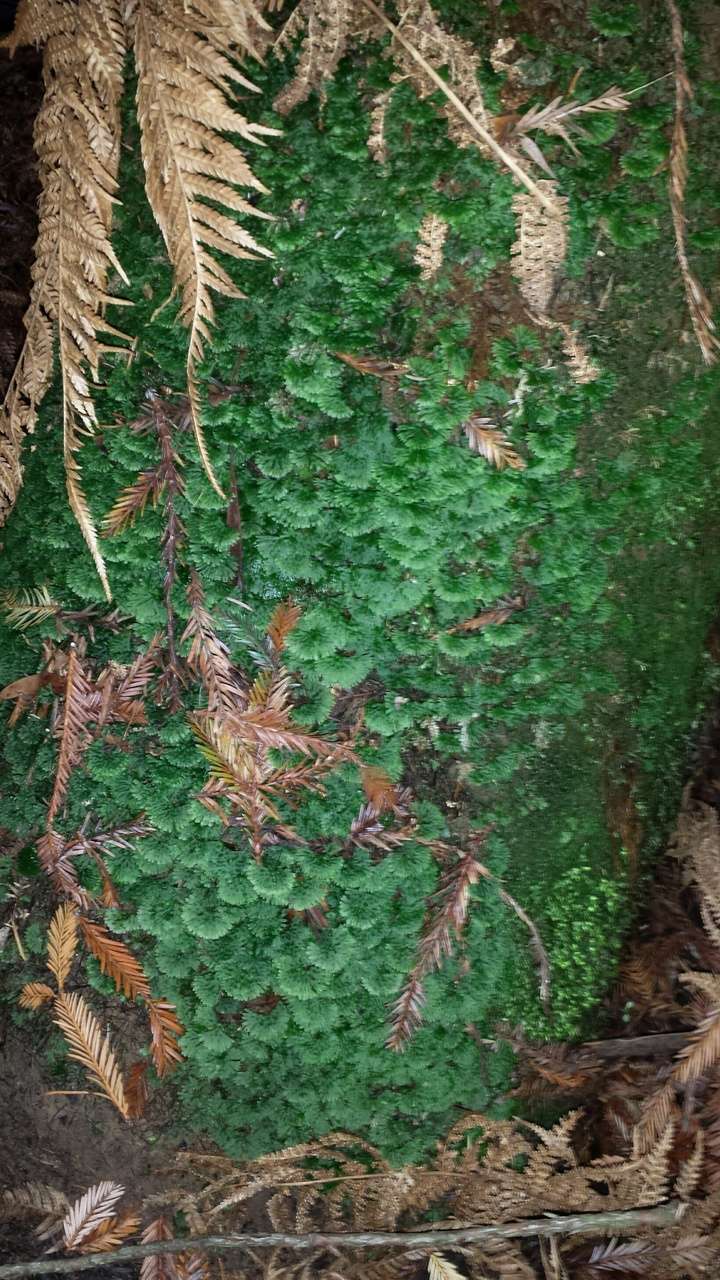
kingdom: Plantae
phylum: Marchantiophyta
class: Jungermanniopsida
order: Pallaviciniales
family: Hymenophytaceae
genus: Hymenophyton
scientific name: Hymenophyton flabellatum
